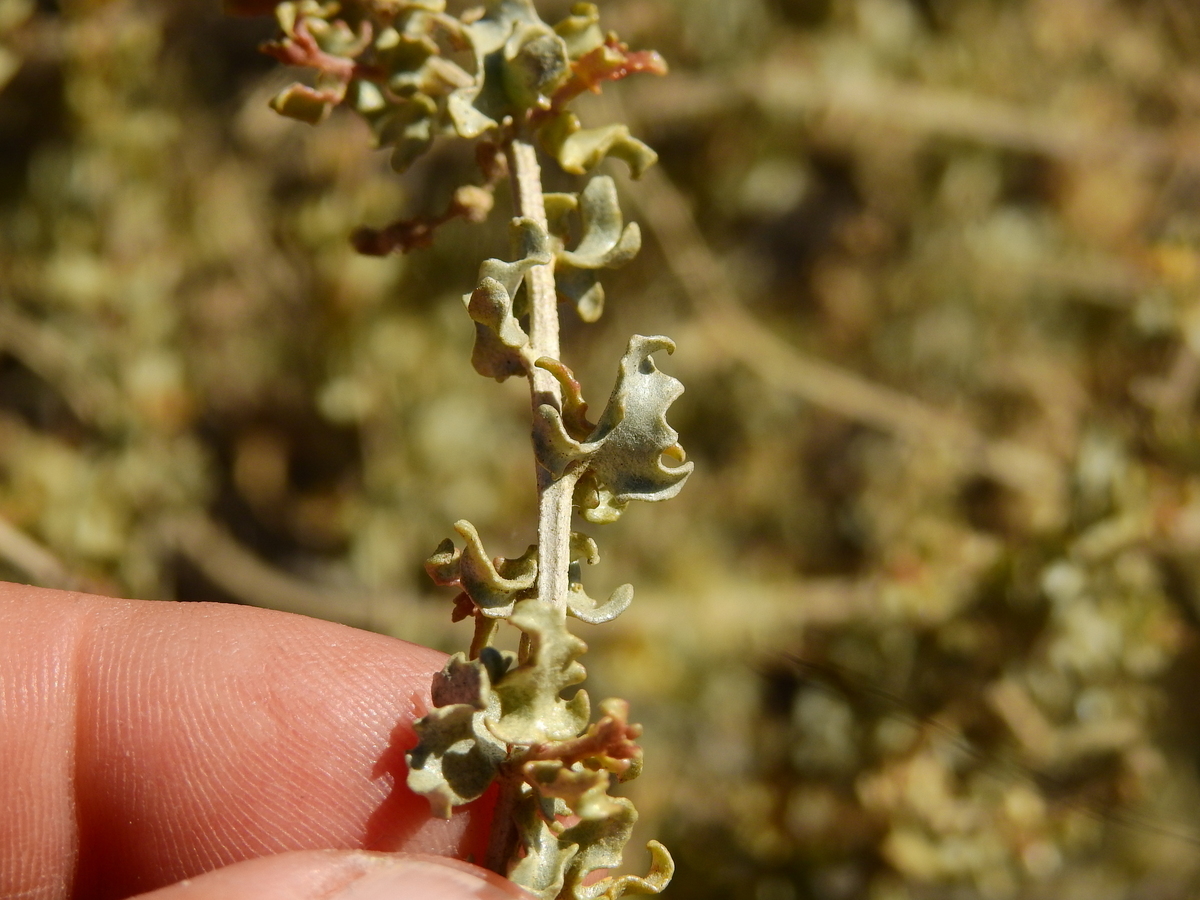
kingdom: Plantae
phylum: Tracheophyta
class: Magnoliopsida
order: Caryophyllales
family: Amaranthaceae
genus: Atriplex
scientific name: Atriplex crenatifolia
